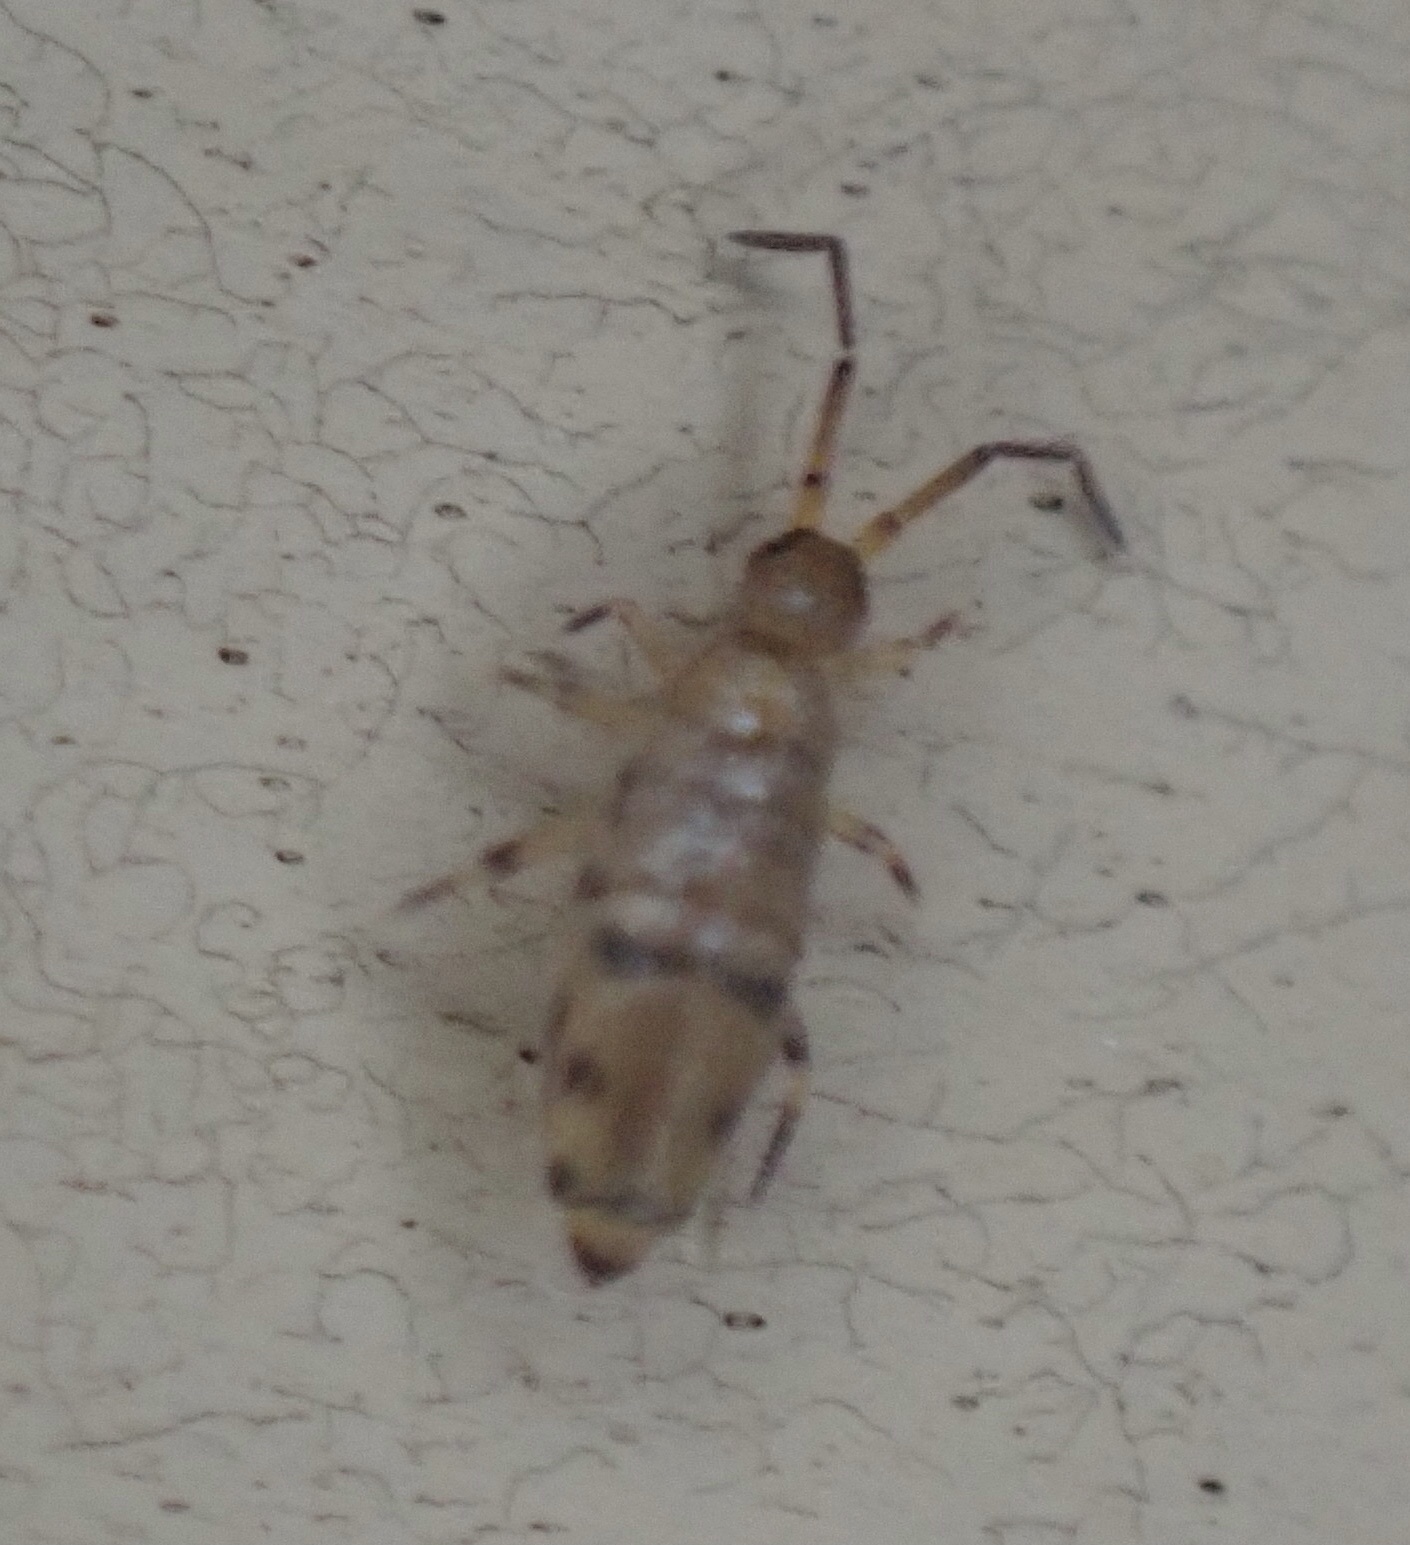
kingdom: Animalia
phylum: Arthropoda
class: Collembola
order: Entomobryomorpha
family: Entomobryidae
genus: Willowsia
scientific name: Willowsia nigromaculata
